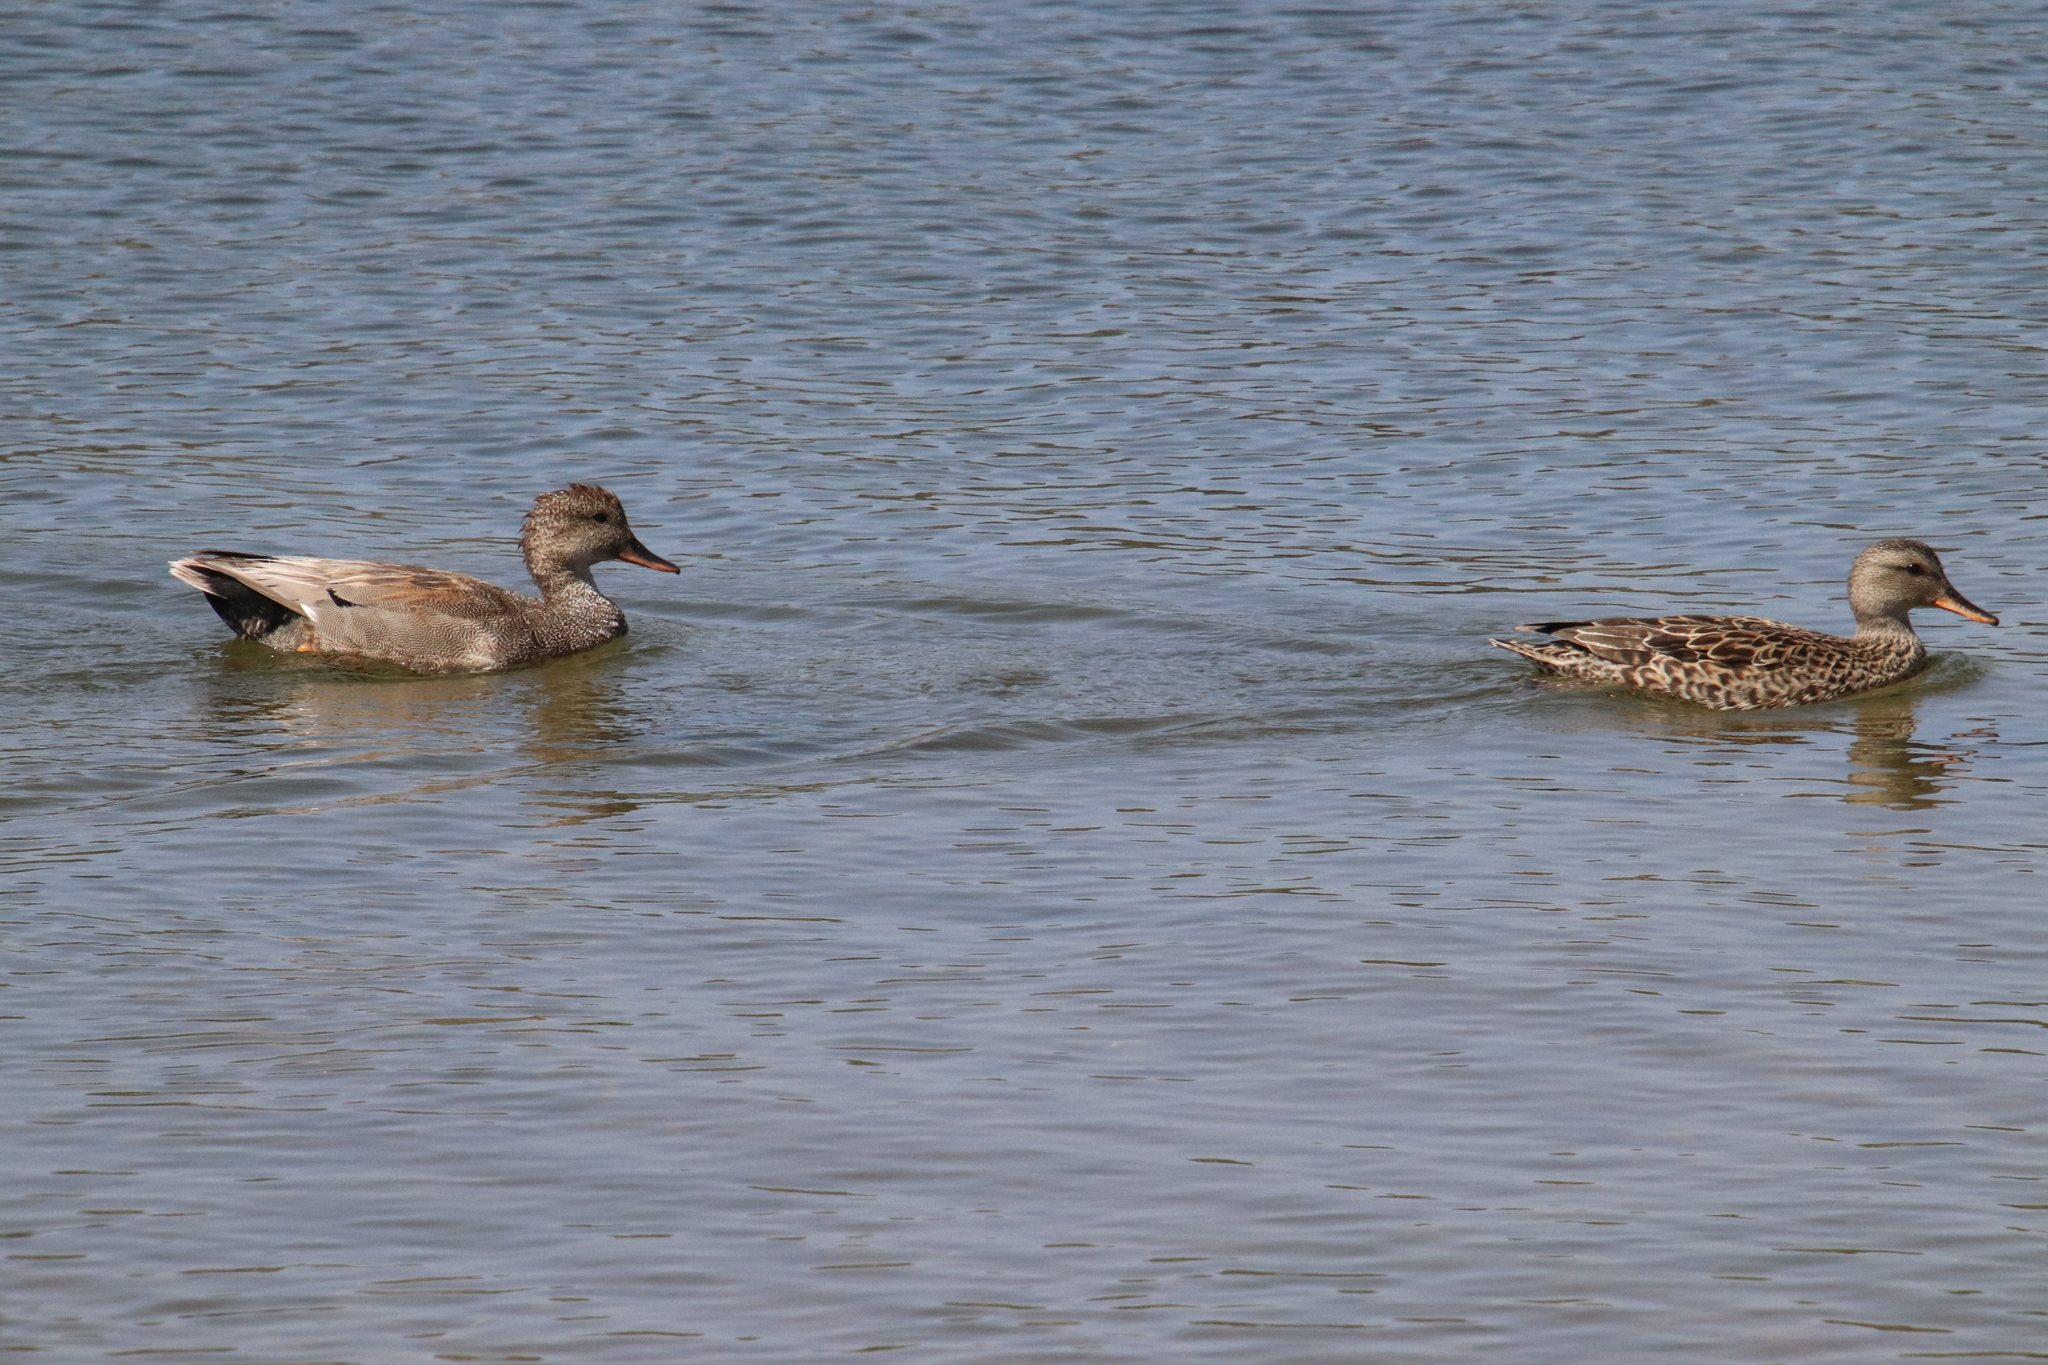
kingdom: Animalia
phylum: Chordata
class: Aves
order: Anseriformes
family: Anatidae
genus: Mareca
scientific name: Mareca strepera
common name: Gadwall
